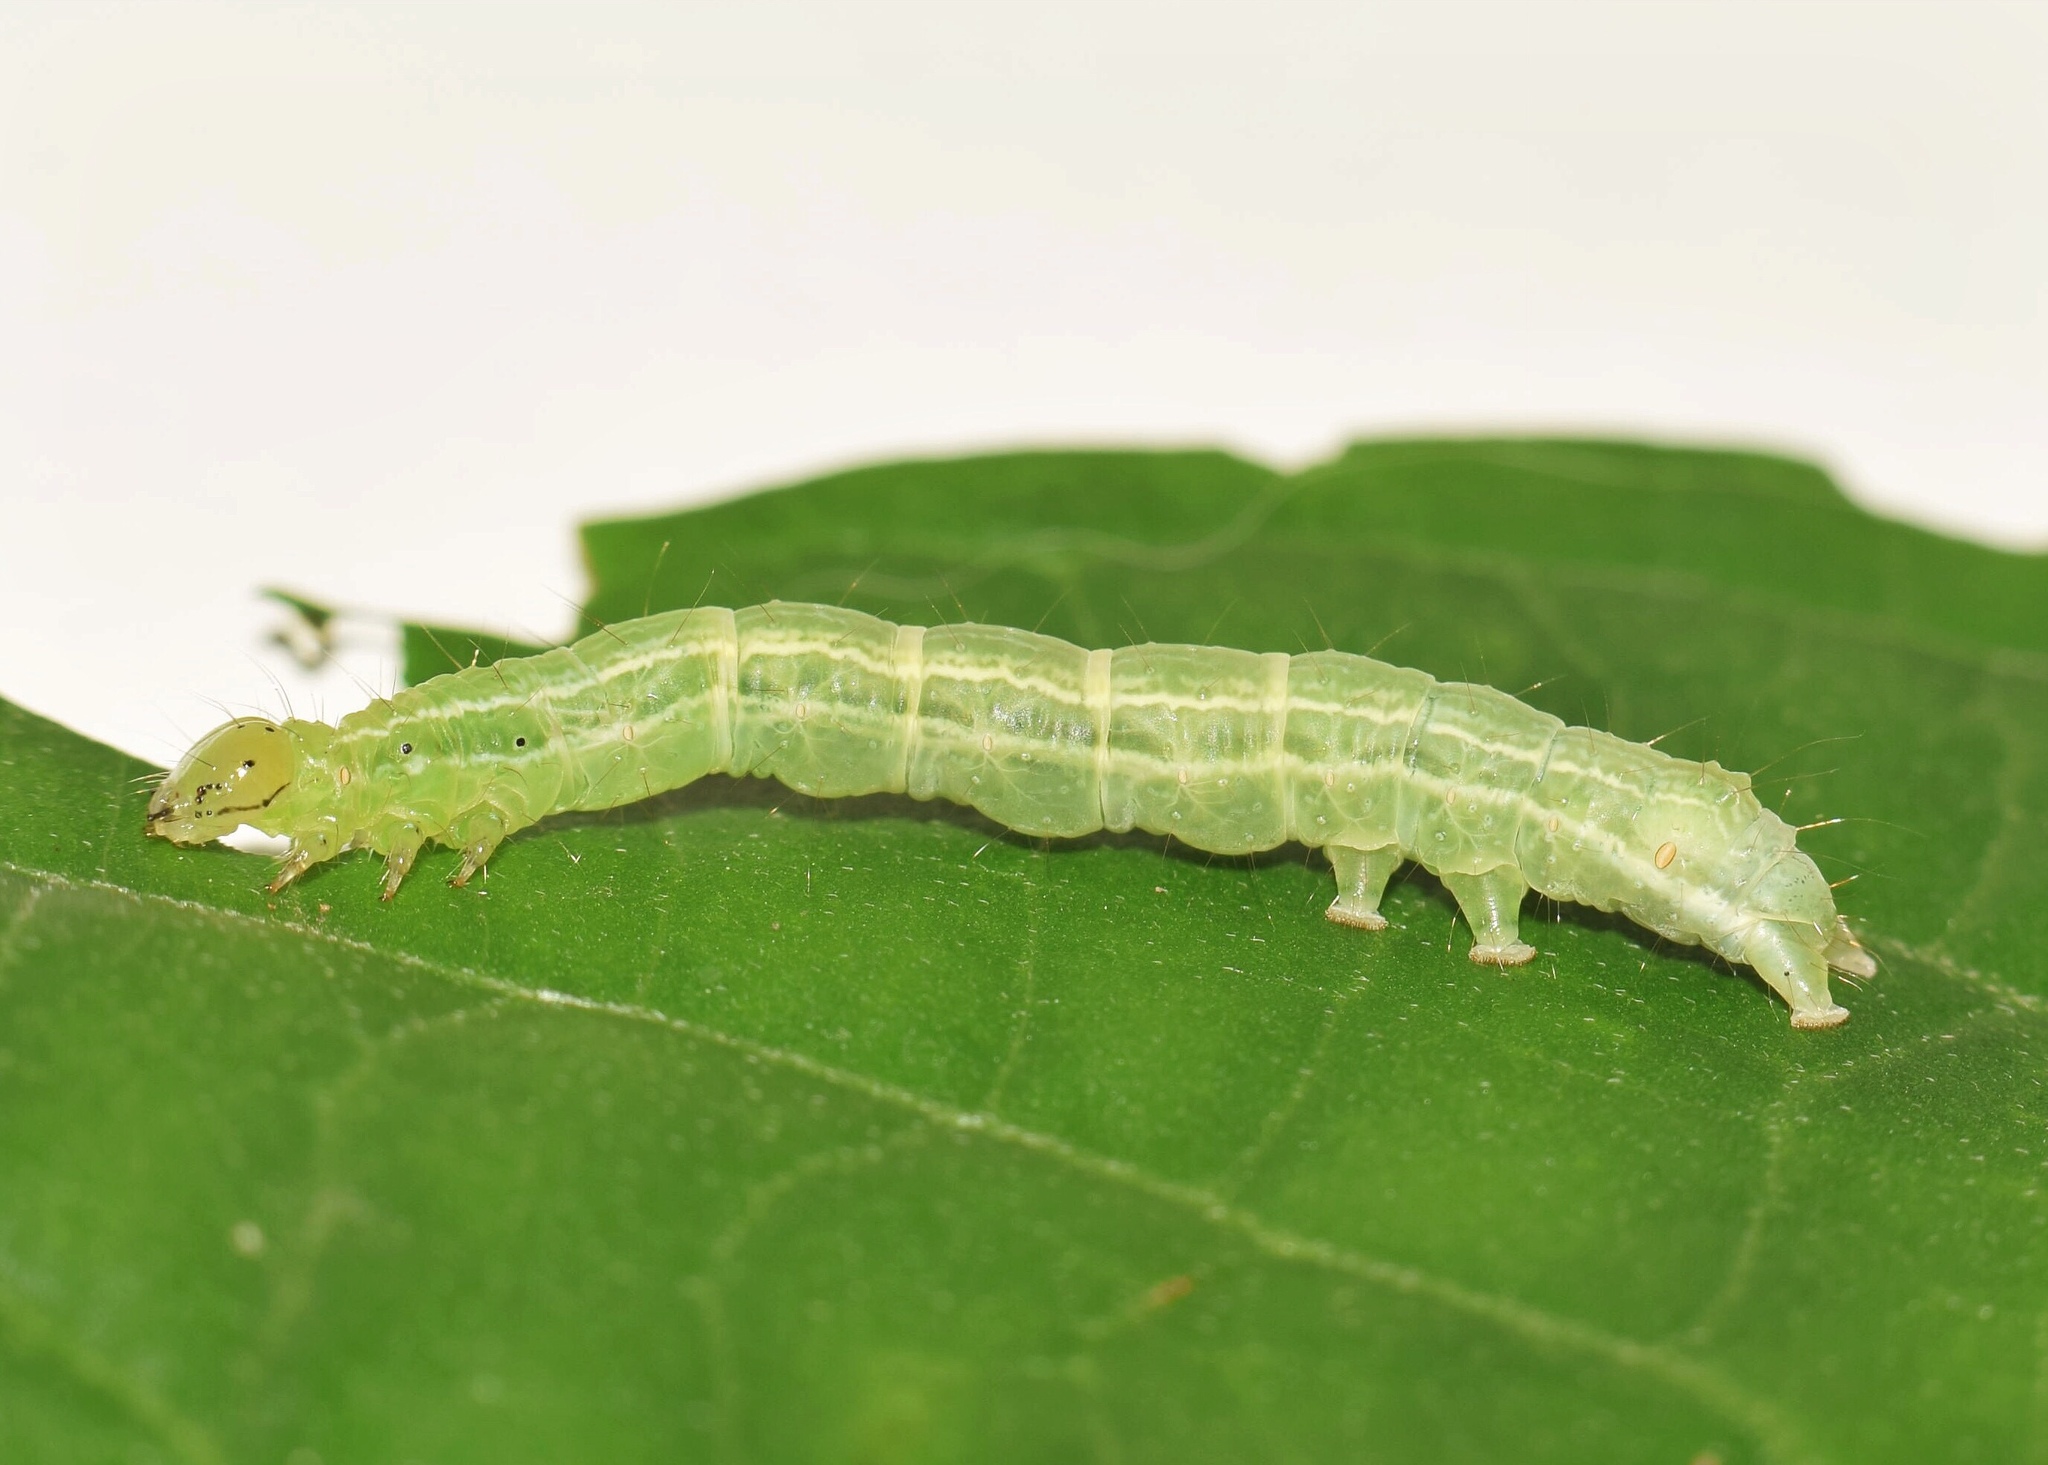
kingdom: Animalia
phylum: Arthropoda
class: Insecta
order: Lepidoptera
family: Noctuidae
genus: Ctenoplusia
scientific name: Ctenoplusia phocea
